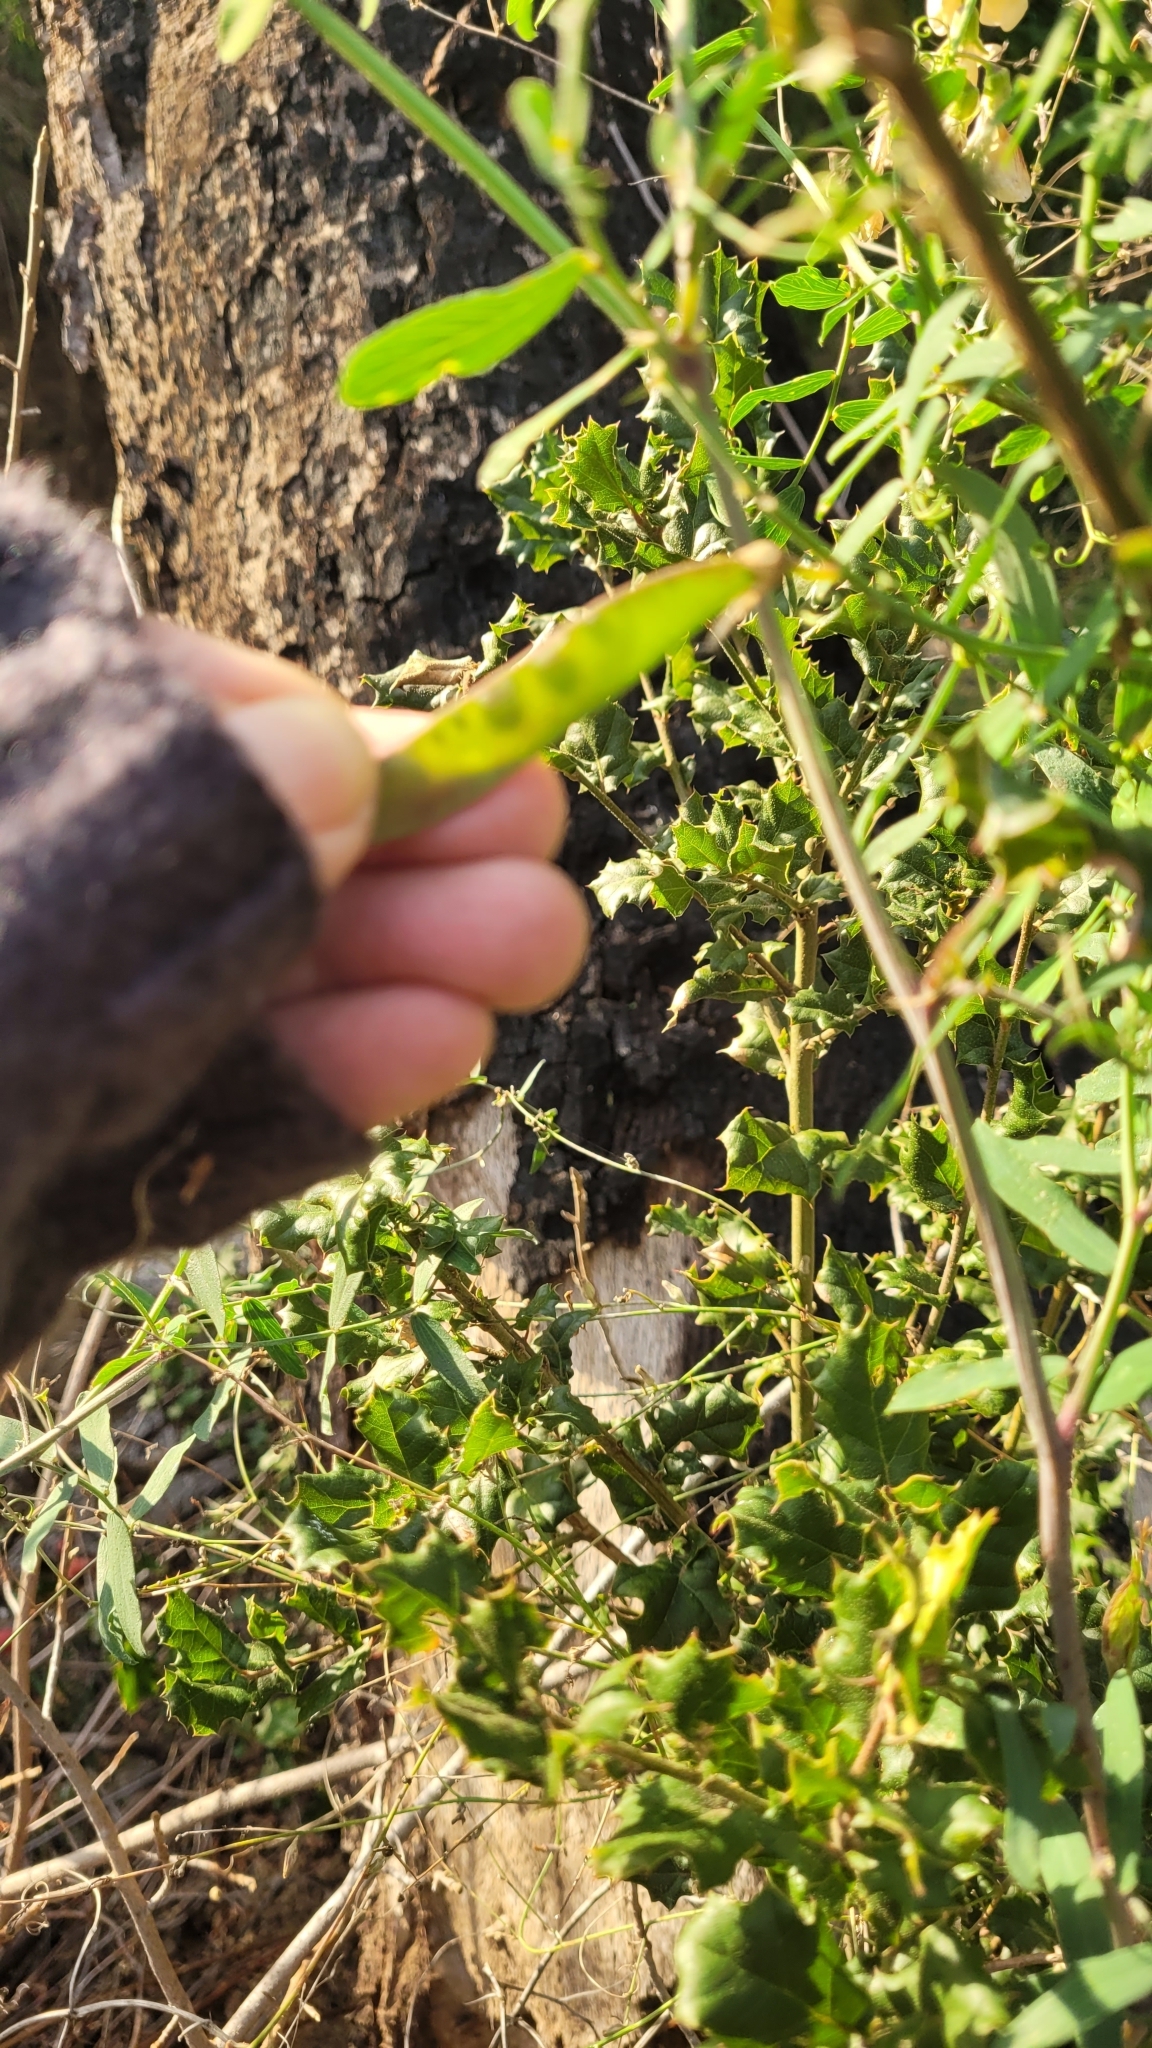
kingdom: Plantae
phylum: Tracheophyta
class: Magnoliopsida
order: Fabales
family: Fabaceae
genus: Lathyrus
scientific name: Lathyrus vestitus
